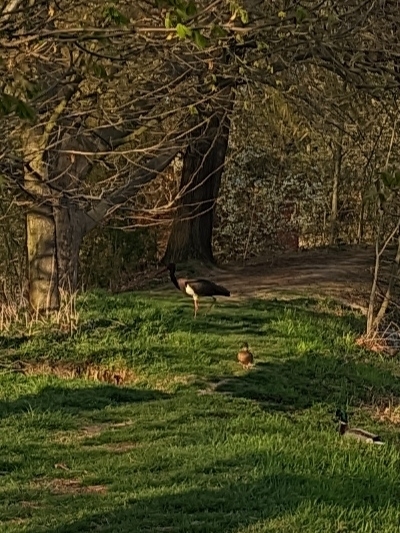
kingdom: Animalia
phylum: Chordata
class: Aves
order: Ciconiiformes
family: Ciconiidae
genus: Ciconia
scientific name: Ciconia nigra
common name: Black stork
